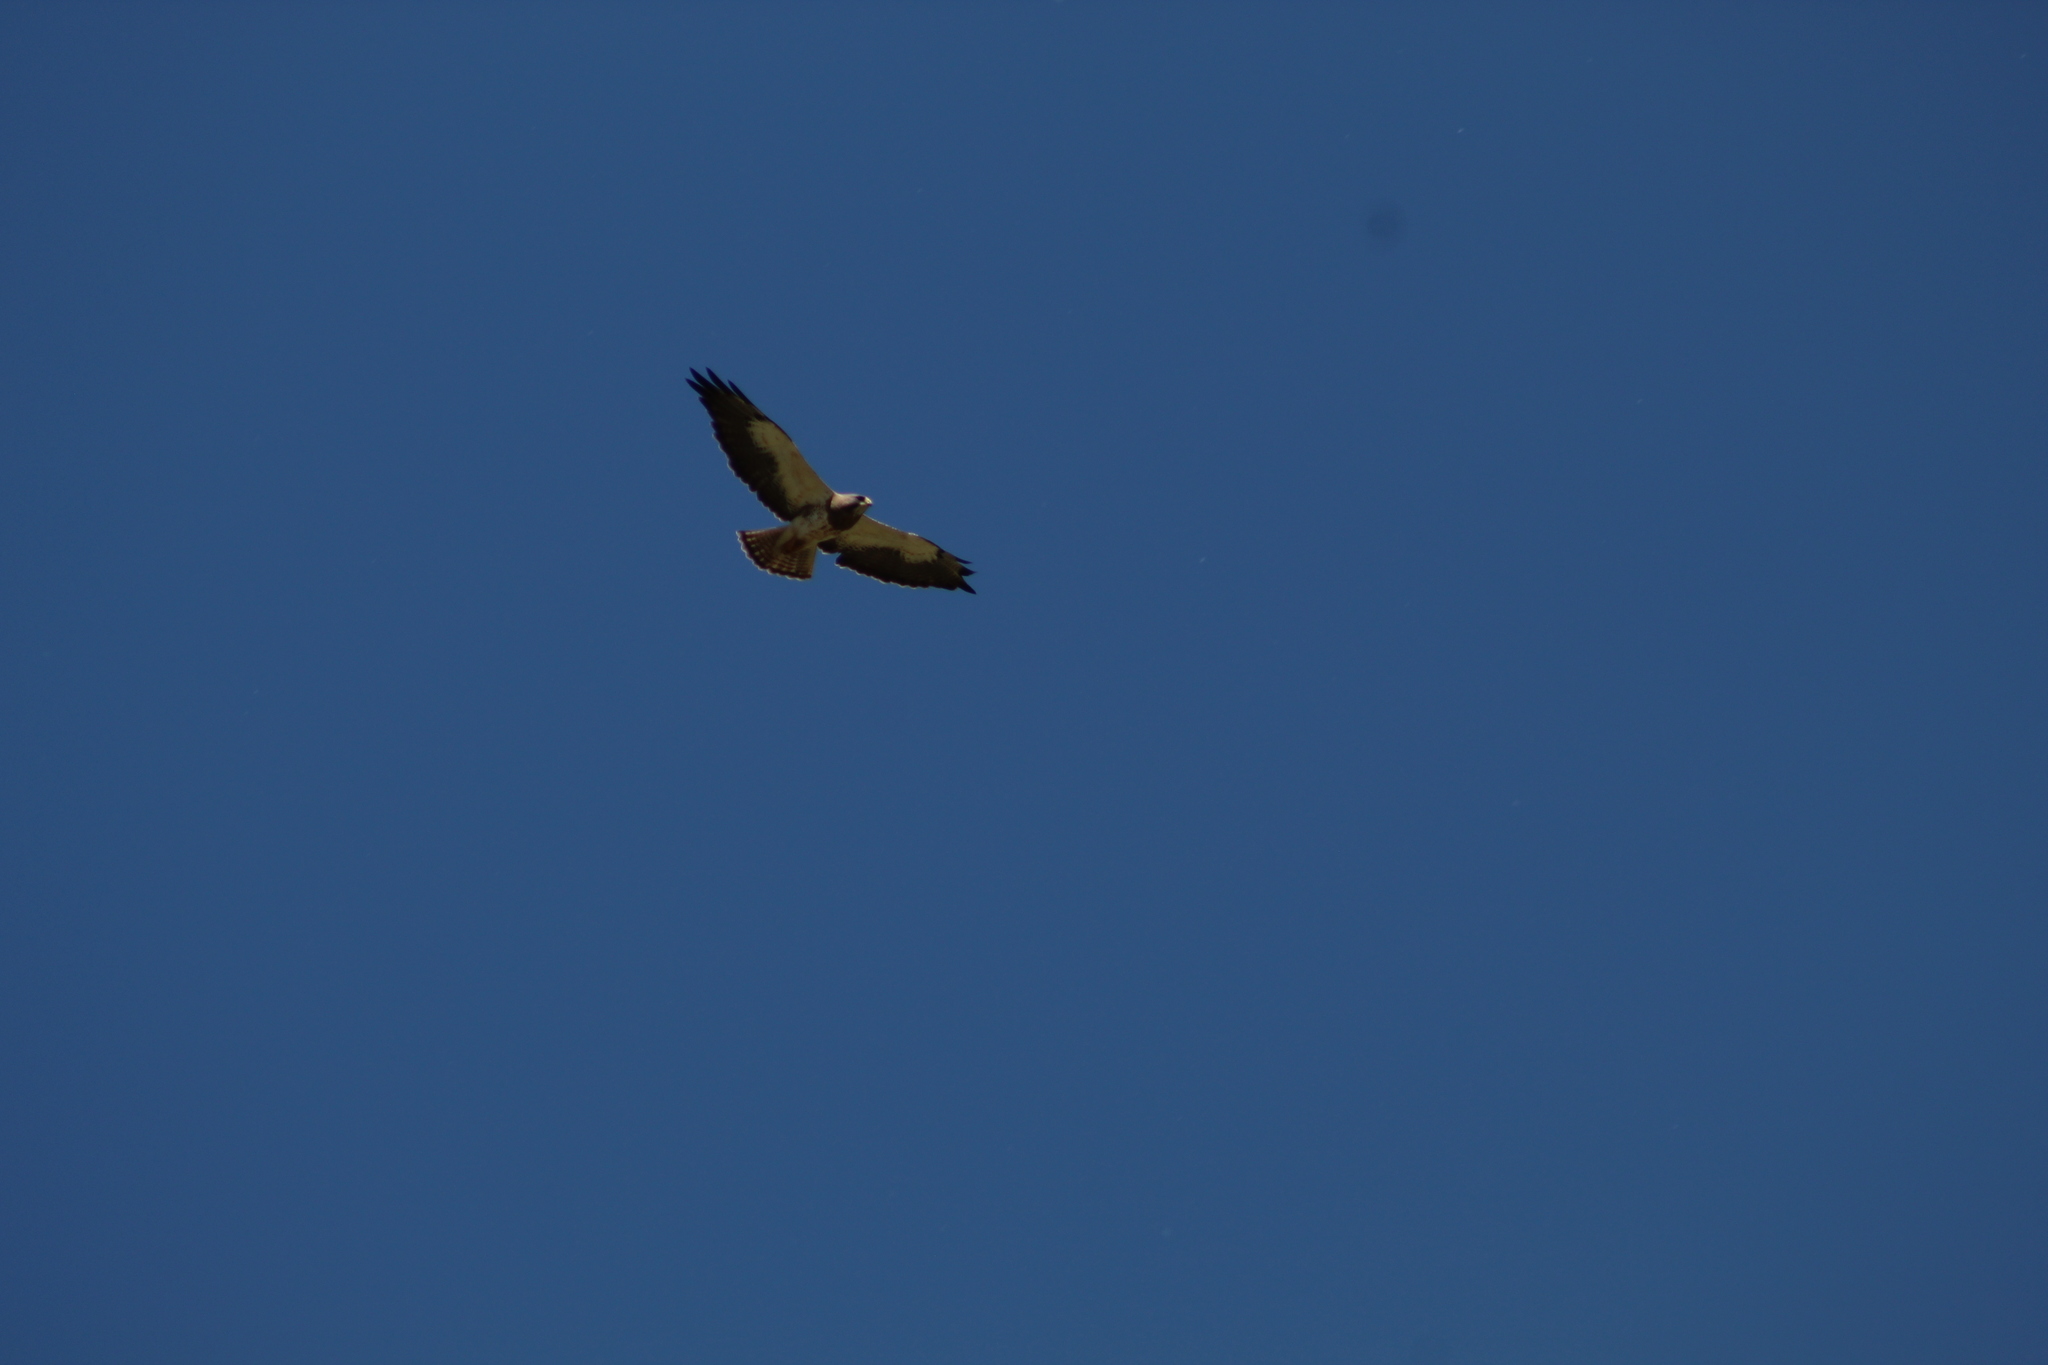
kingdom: Animalia
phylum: Chordata
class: Aves
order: Accipitriformes
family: Accipitridae
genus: Buteo
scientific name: Buteo swainsoni
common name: Swainson's hawk
